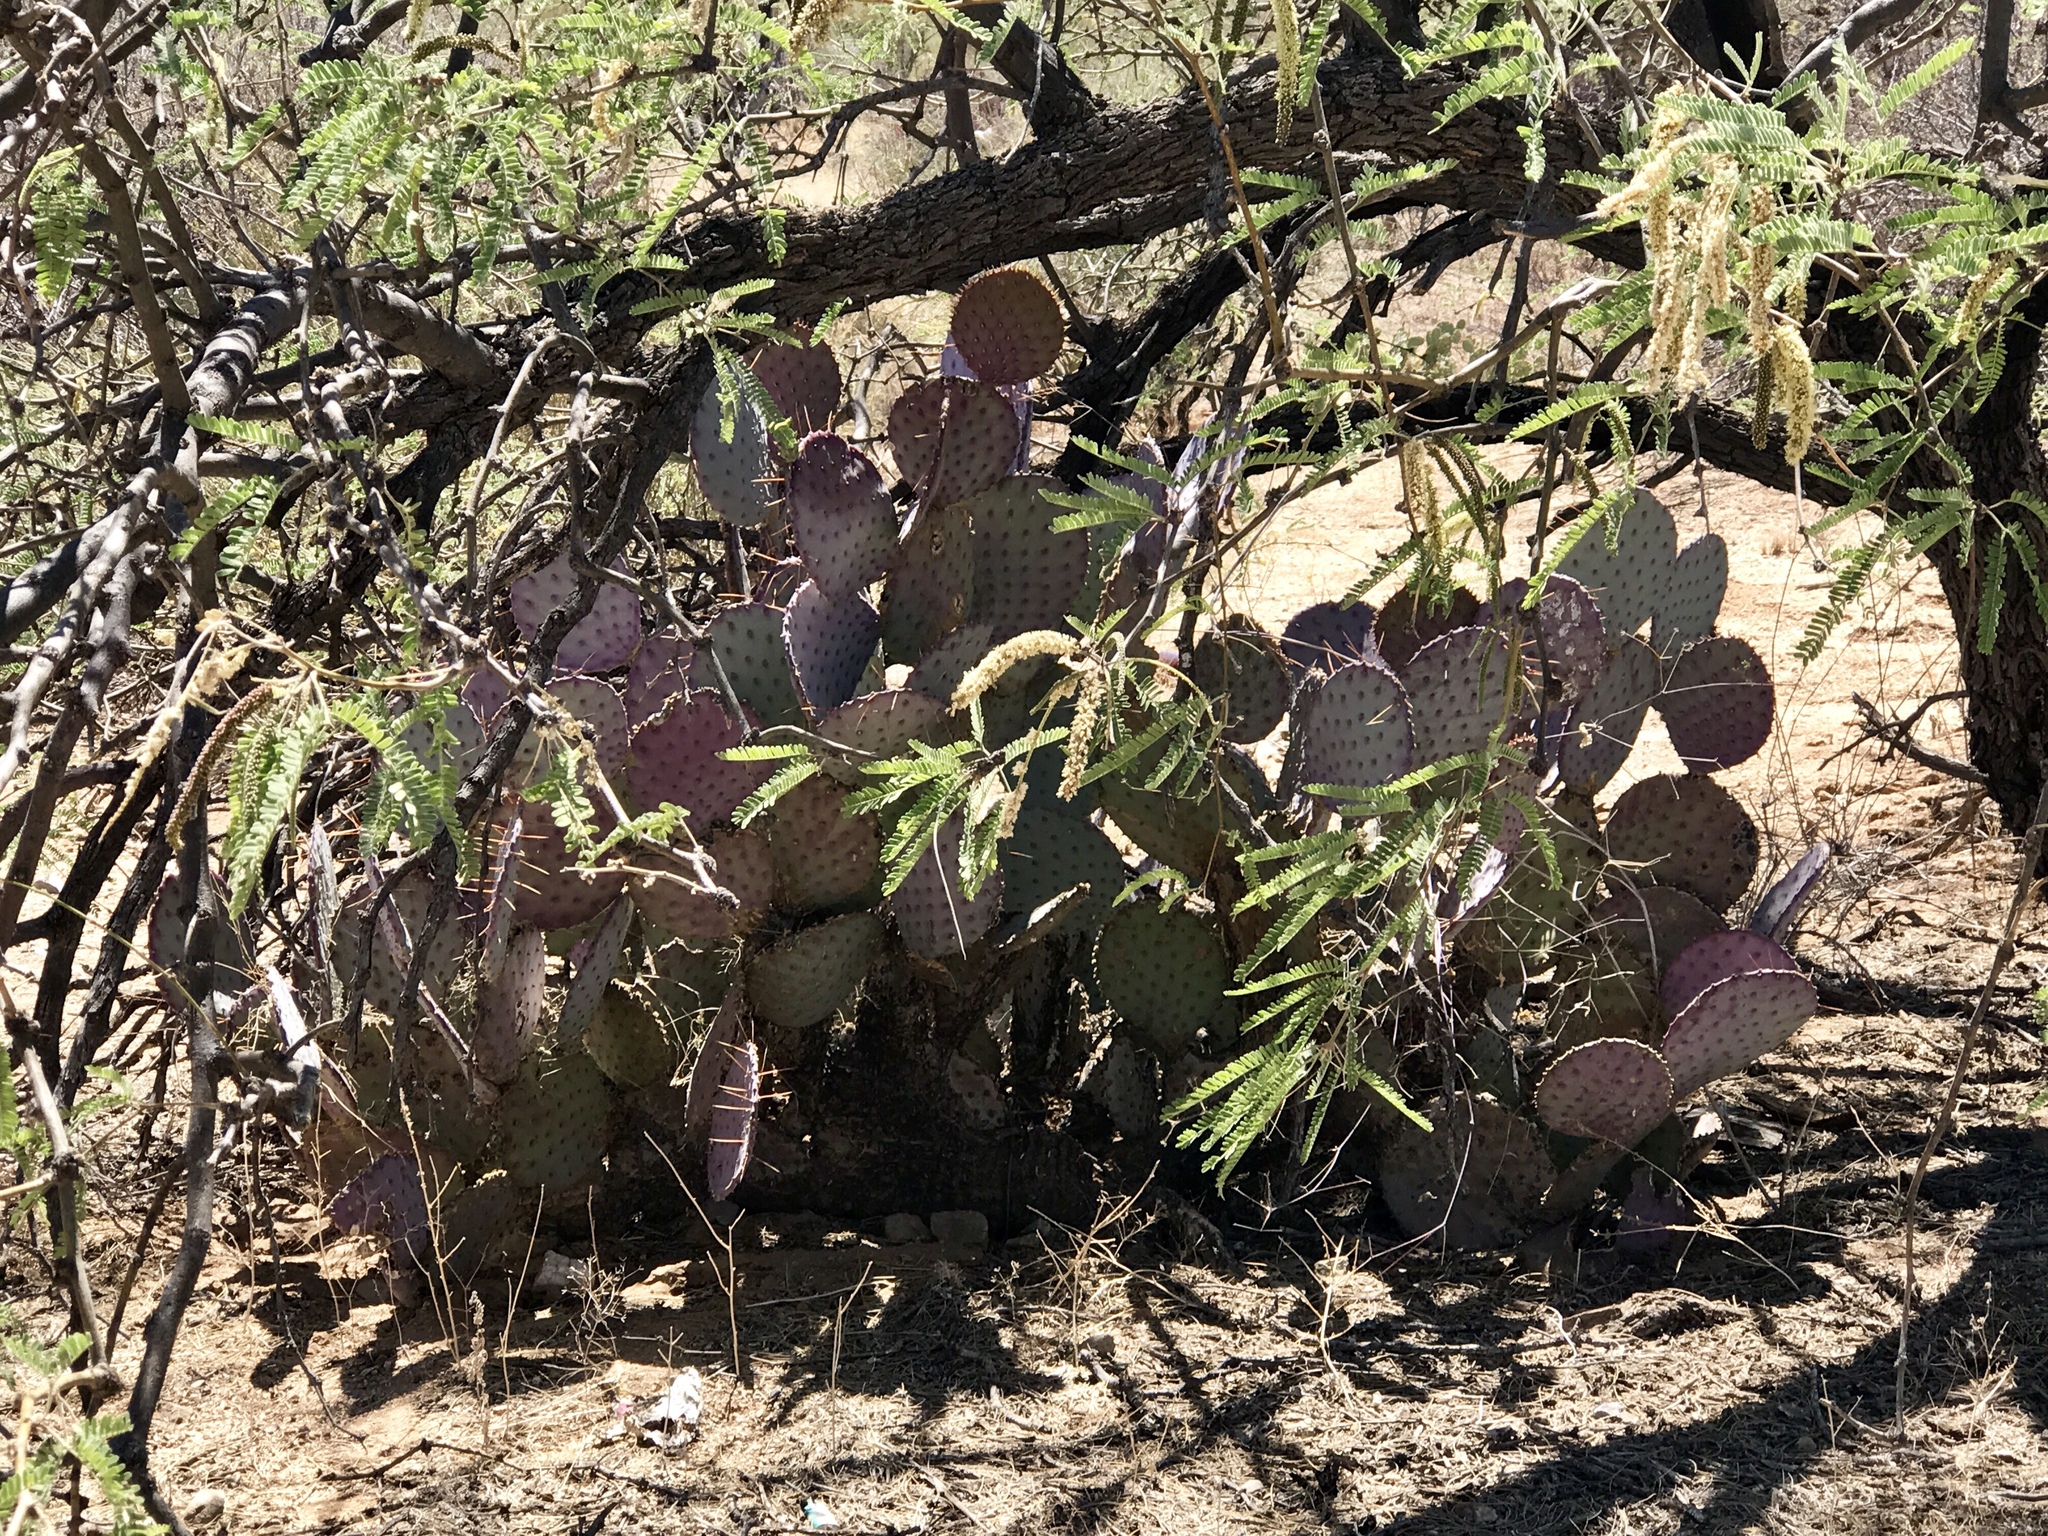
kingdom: Plantae
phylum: Tracheophyta
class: Magnoliopsida
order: Caryophyllales
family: Cactaceae
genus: Opuntia
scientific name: Opuntia gosseliniana
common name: Violet prickly-pear
